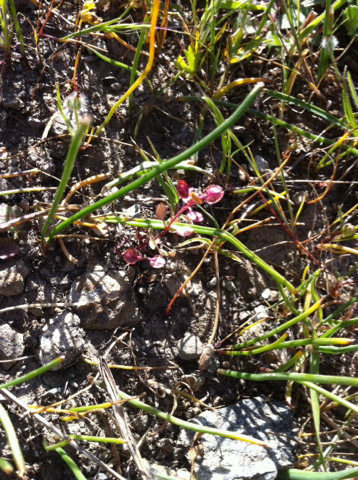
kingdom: Plantae
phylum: Tracheophyta
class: Magnoliopsida
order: Brassicales
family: Brassicaceae
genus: Lepidium
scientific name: Lepidium nitidum
